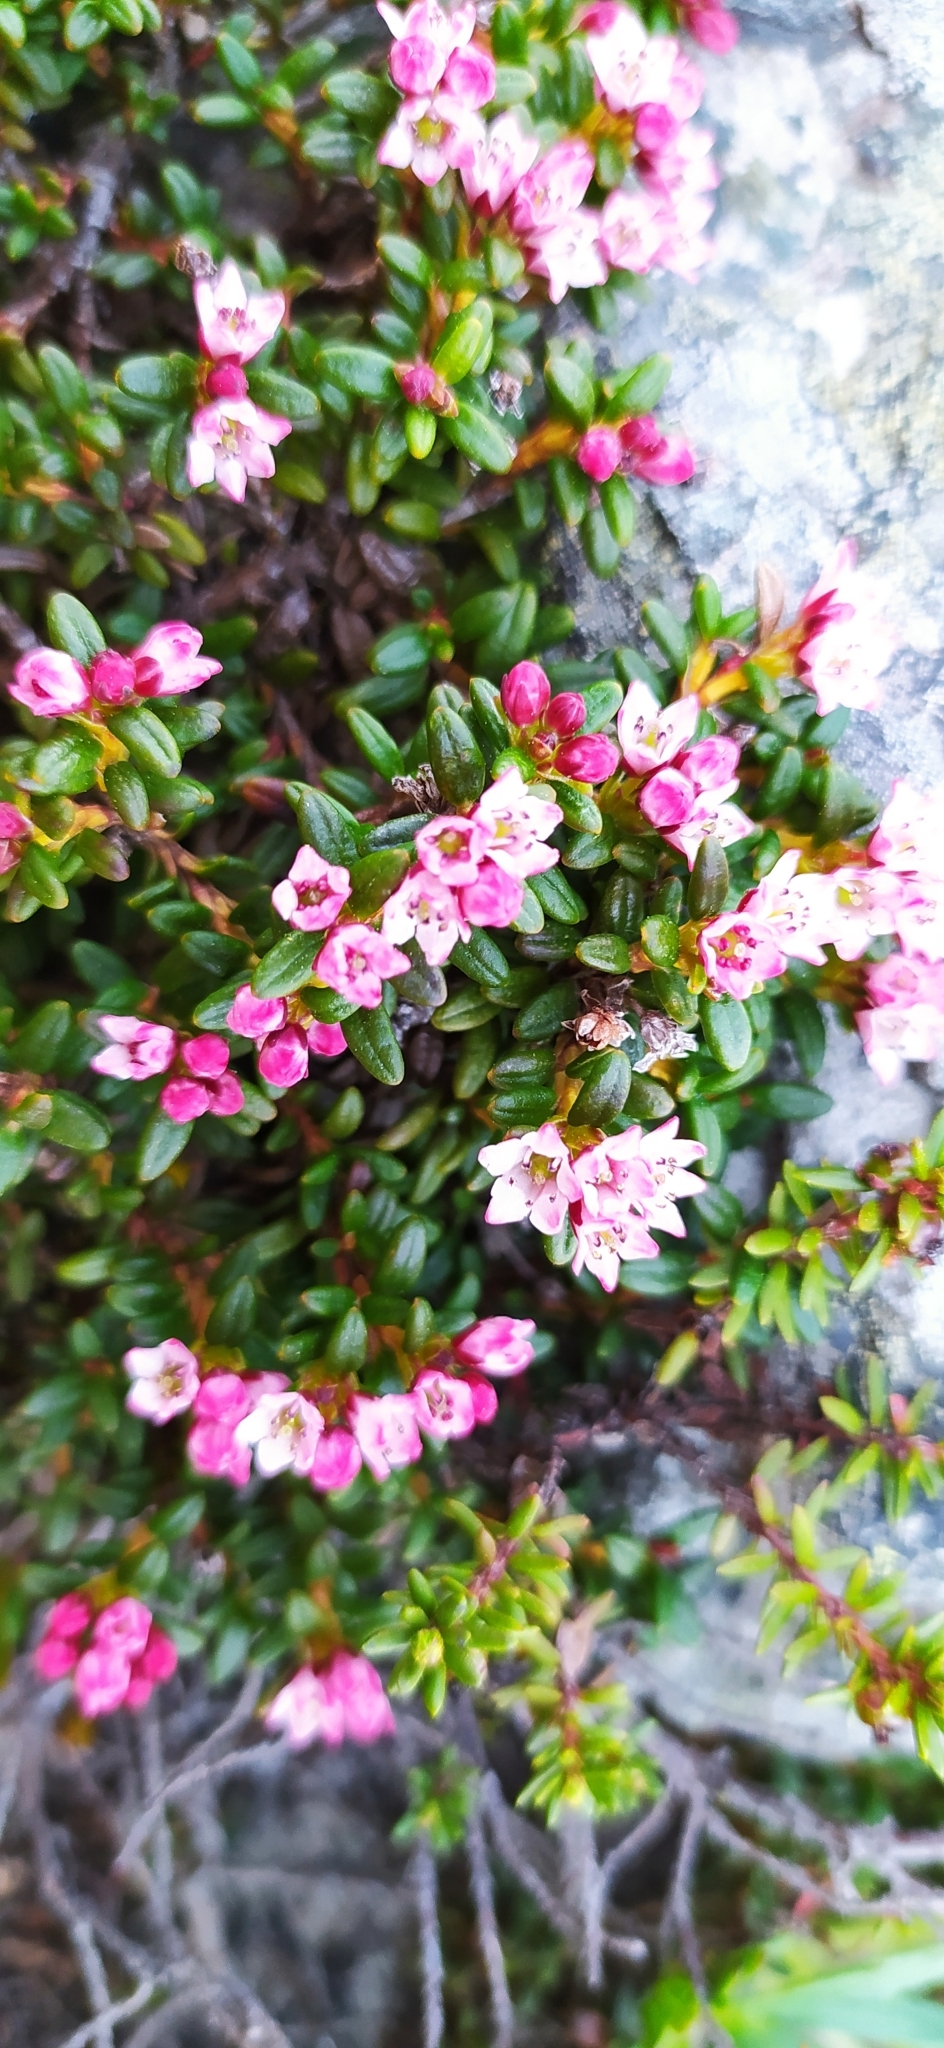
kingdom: Plantae
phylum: Tracheophyta
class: Magnoliopsida
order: Ericales
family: Ericaceae
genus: Kalmia
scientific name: Kalmia procumbens
